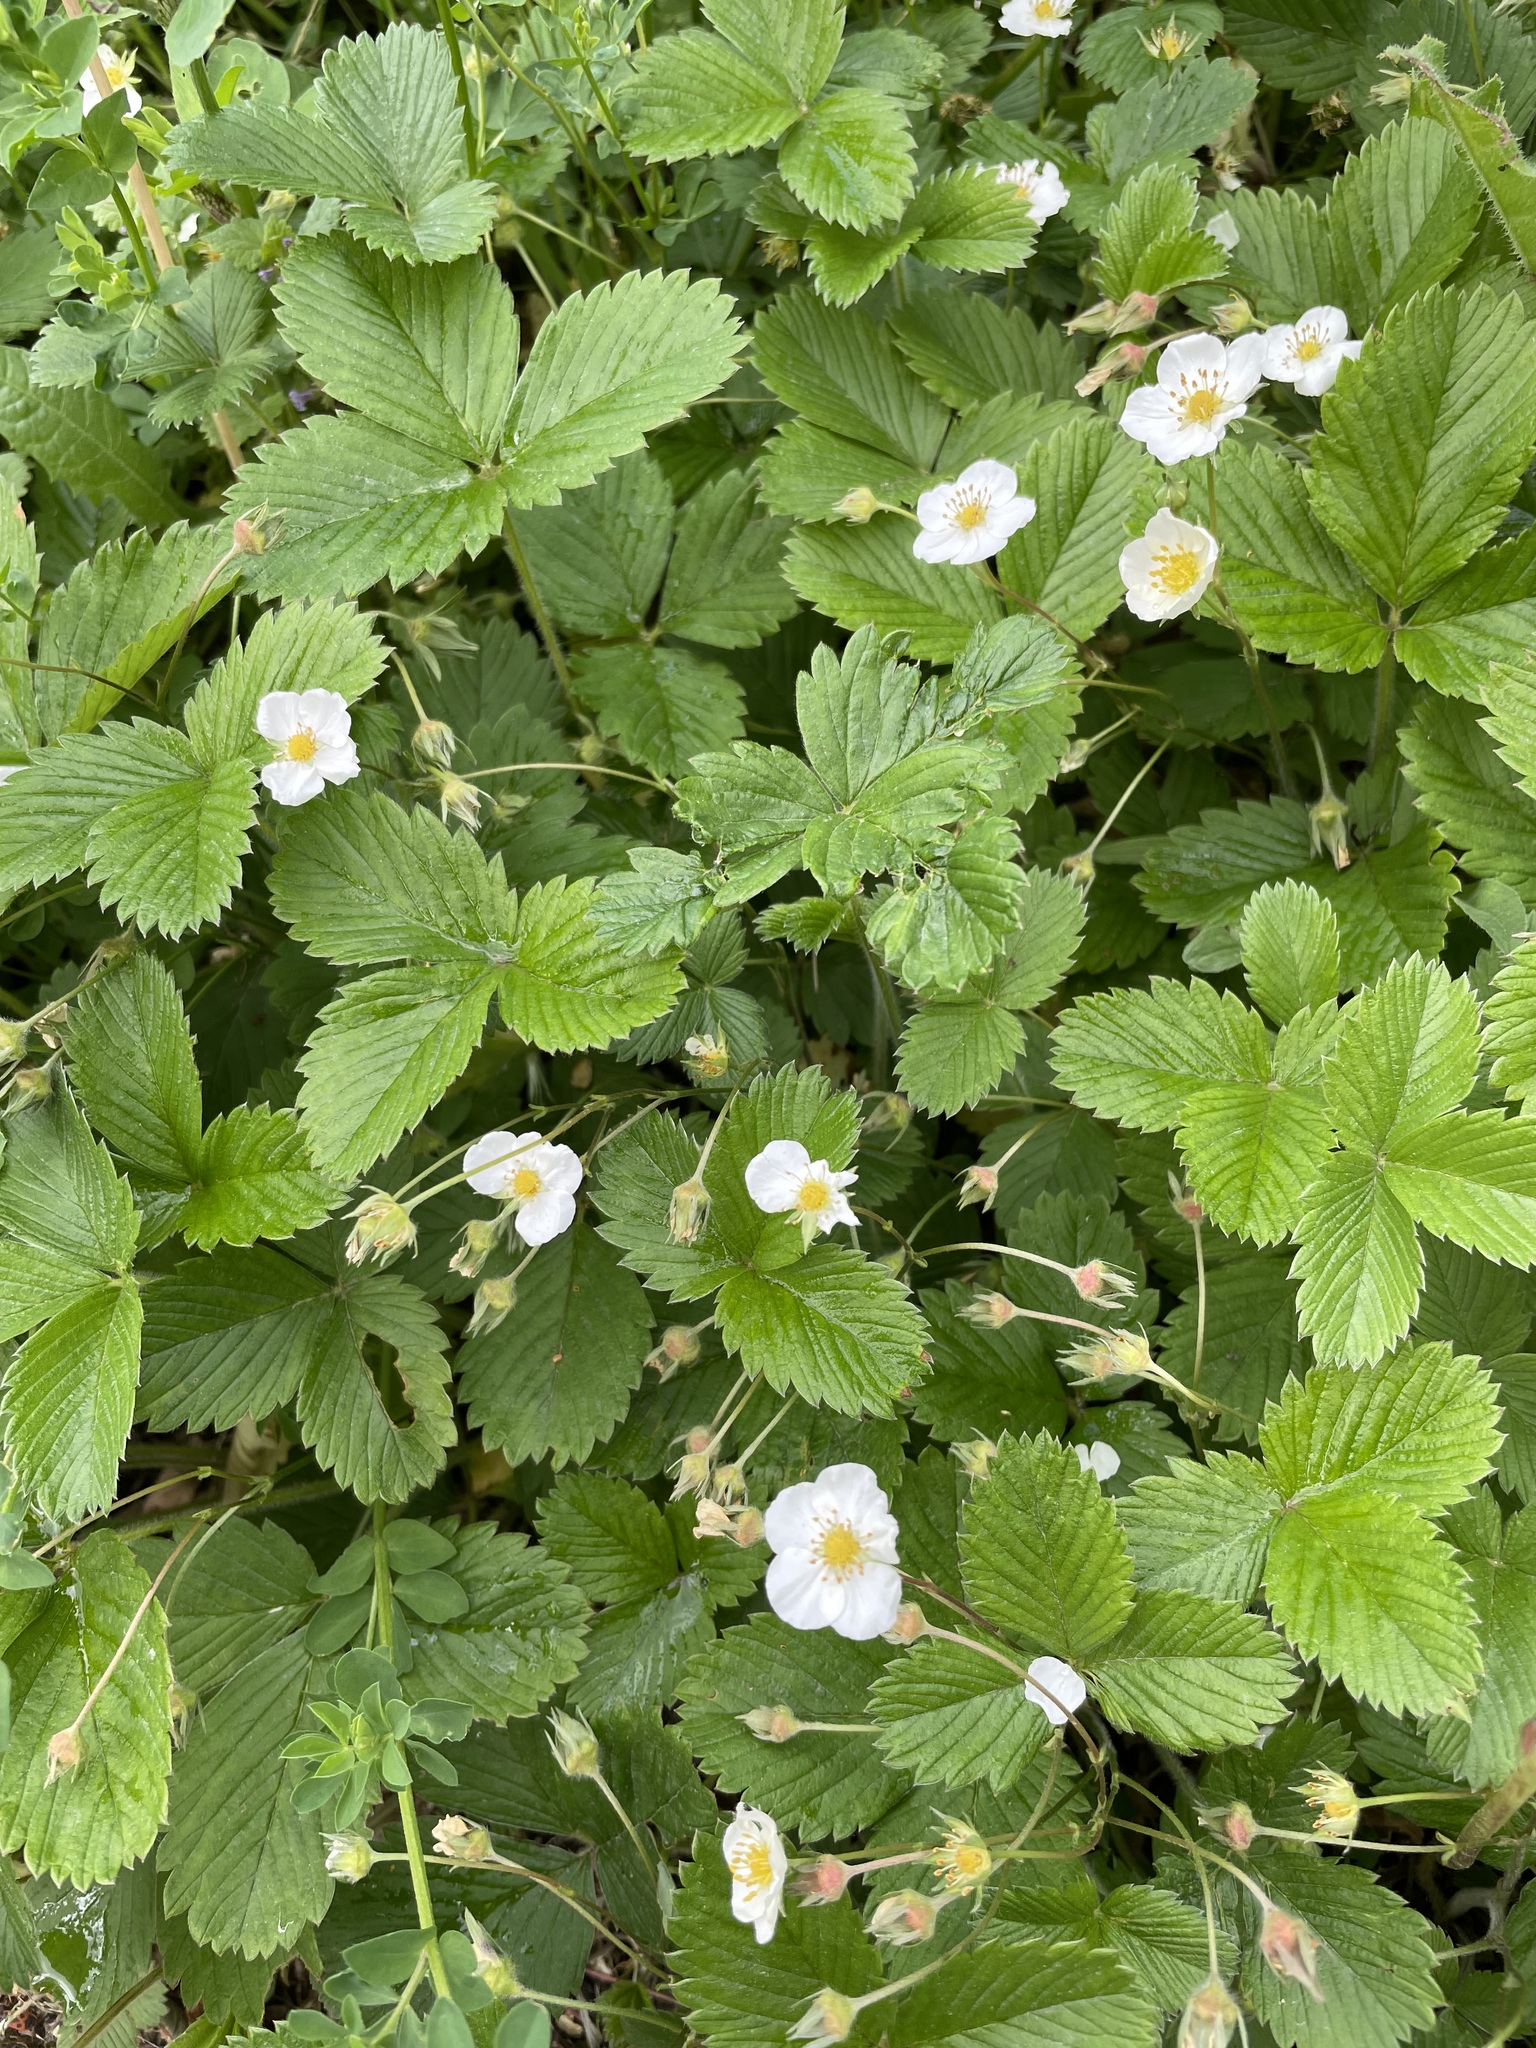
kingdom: Plantae
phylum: Tracheophyta
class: Magnoliopsida
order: Rosales
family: Rosaceae
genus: Fragaria
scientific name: Fragaria viridis
